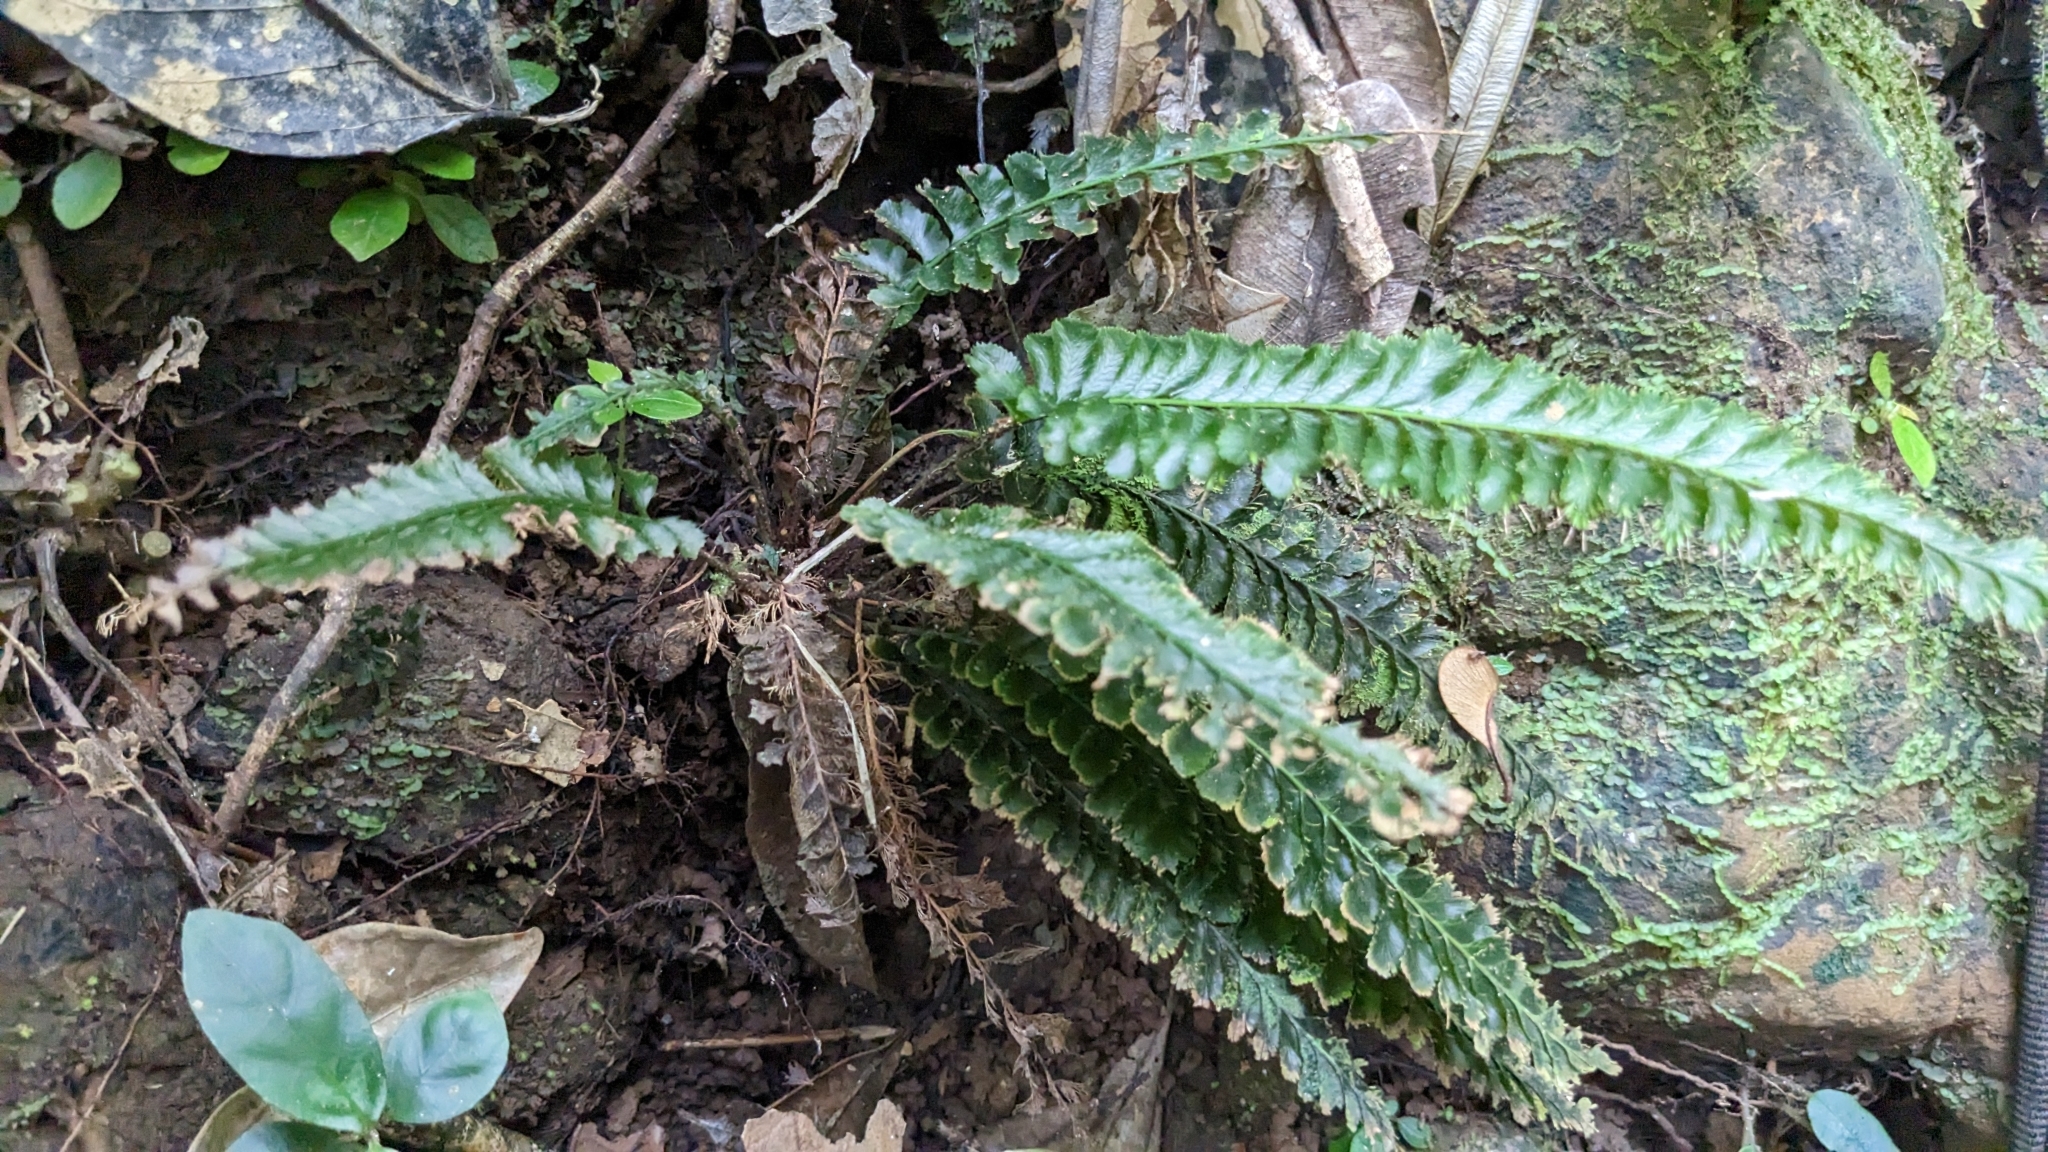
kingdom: Plantae
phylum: Tracheophyta
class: Polypodiopsida
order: Hymenophyllales
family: Hymenophyllaceae
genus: Cephalomanes
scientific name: Cephalomanes laciniatum
